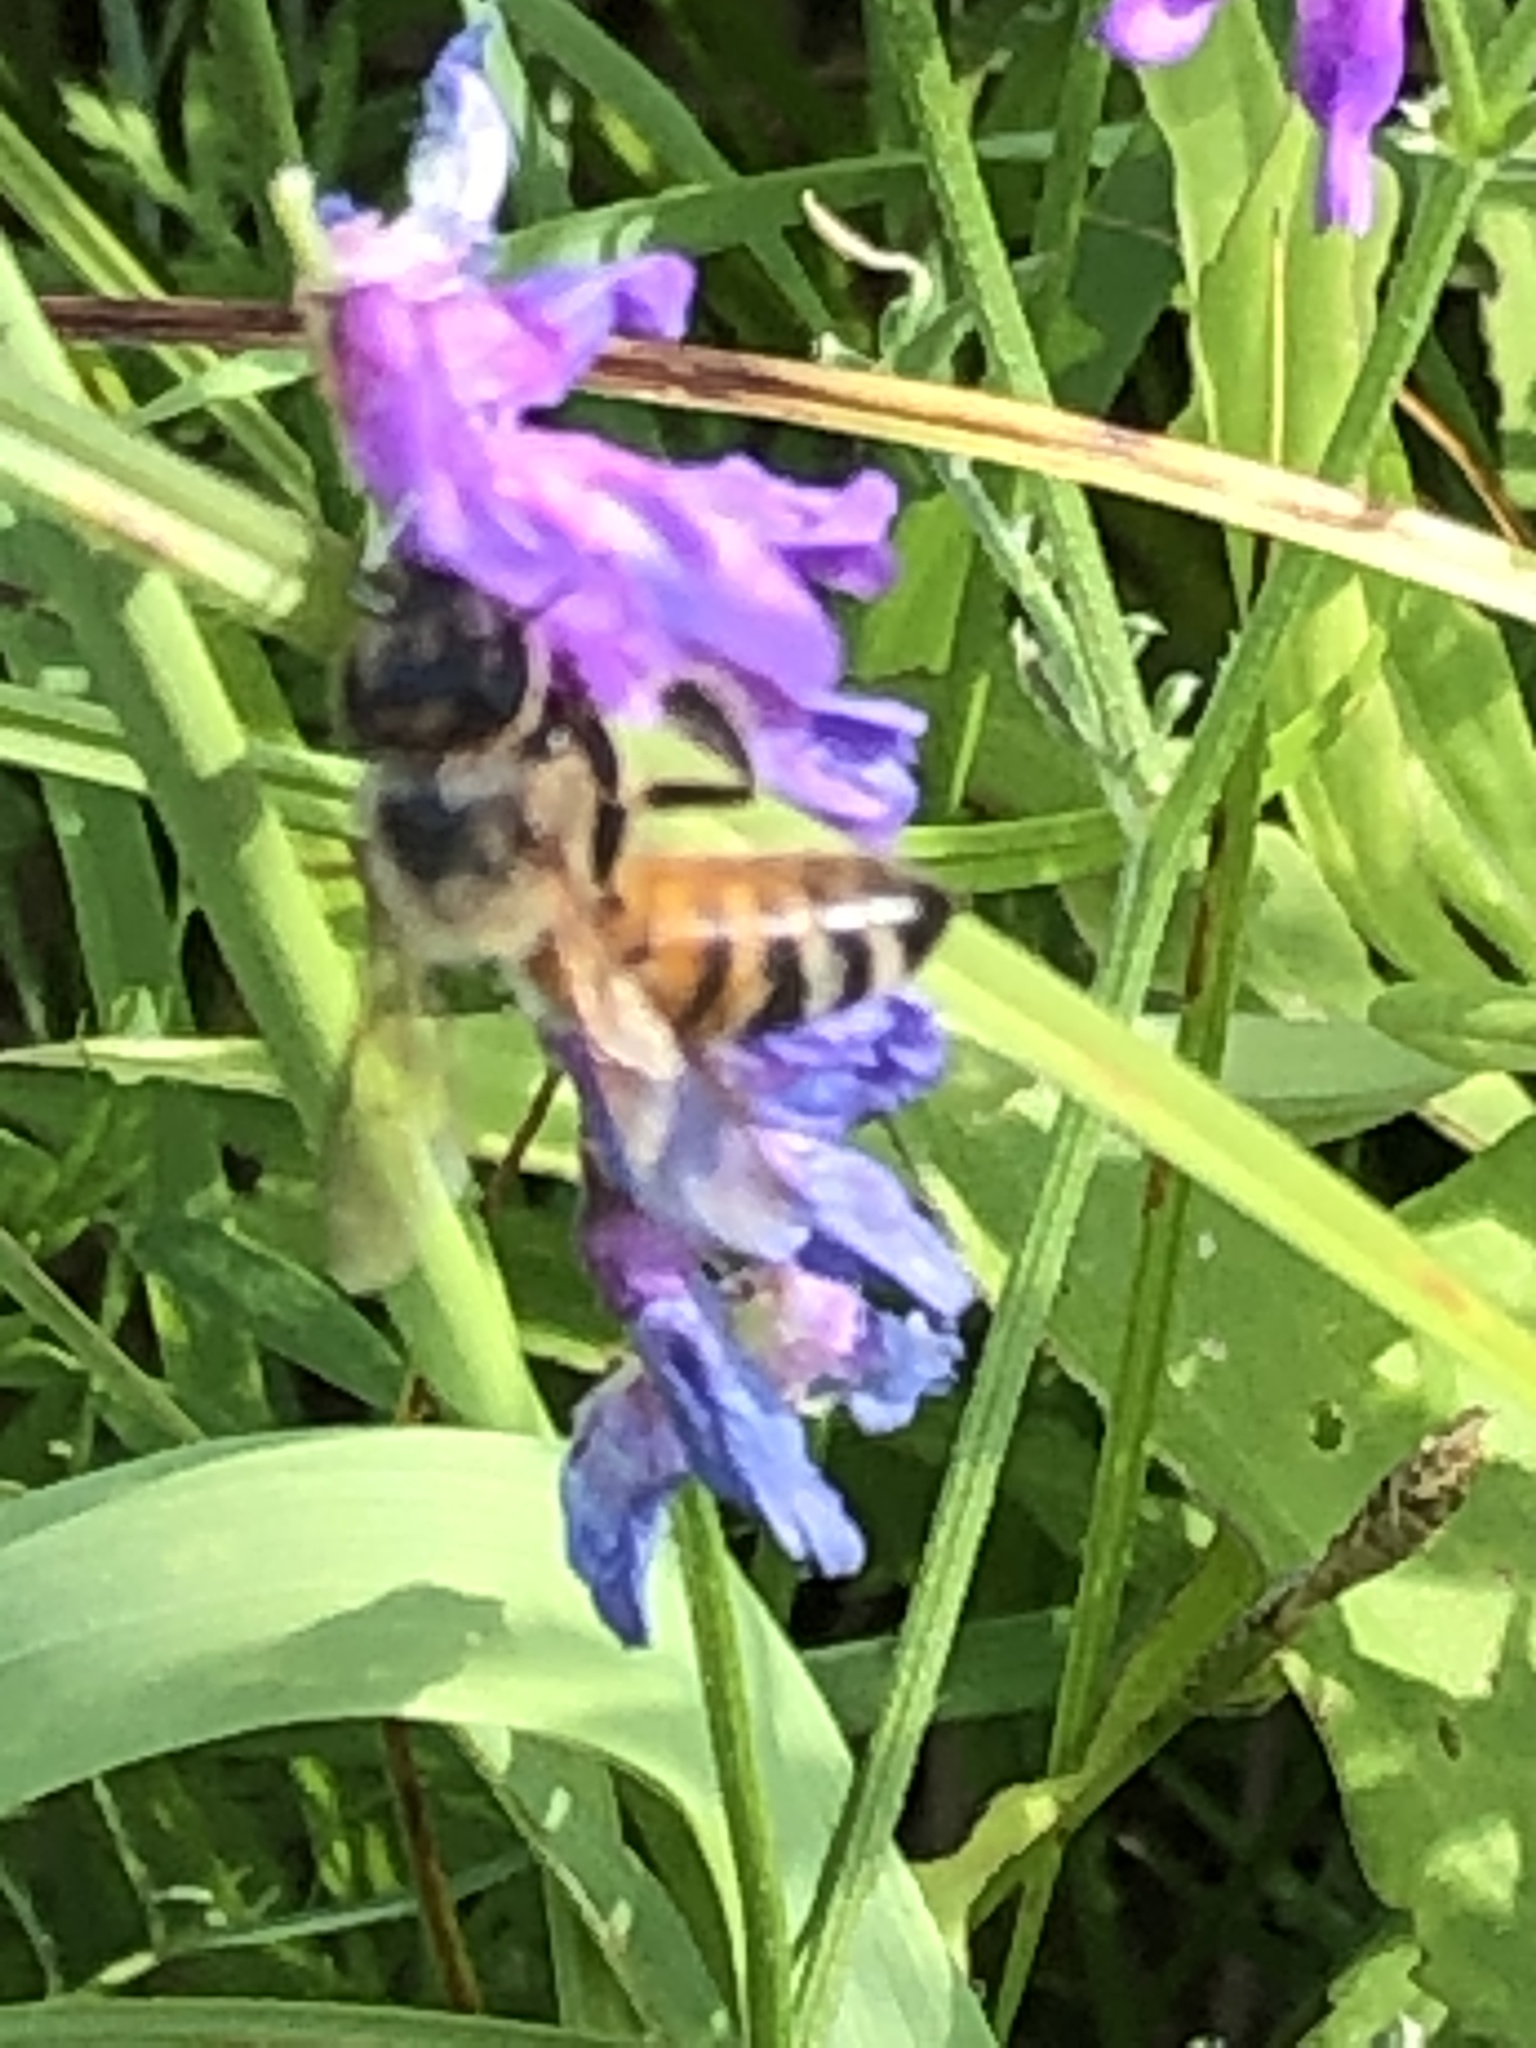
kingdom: Animalia
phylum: Arthropoda
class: Insecta
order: Hymenoptera
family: Apidae
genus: Apis
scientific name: Apis mellifera
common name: Honey bee
